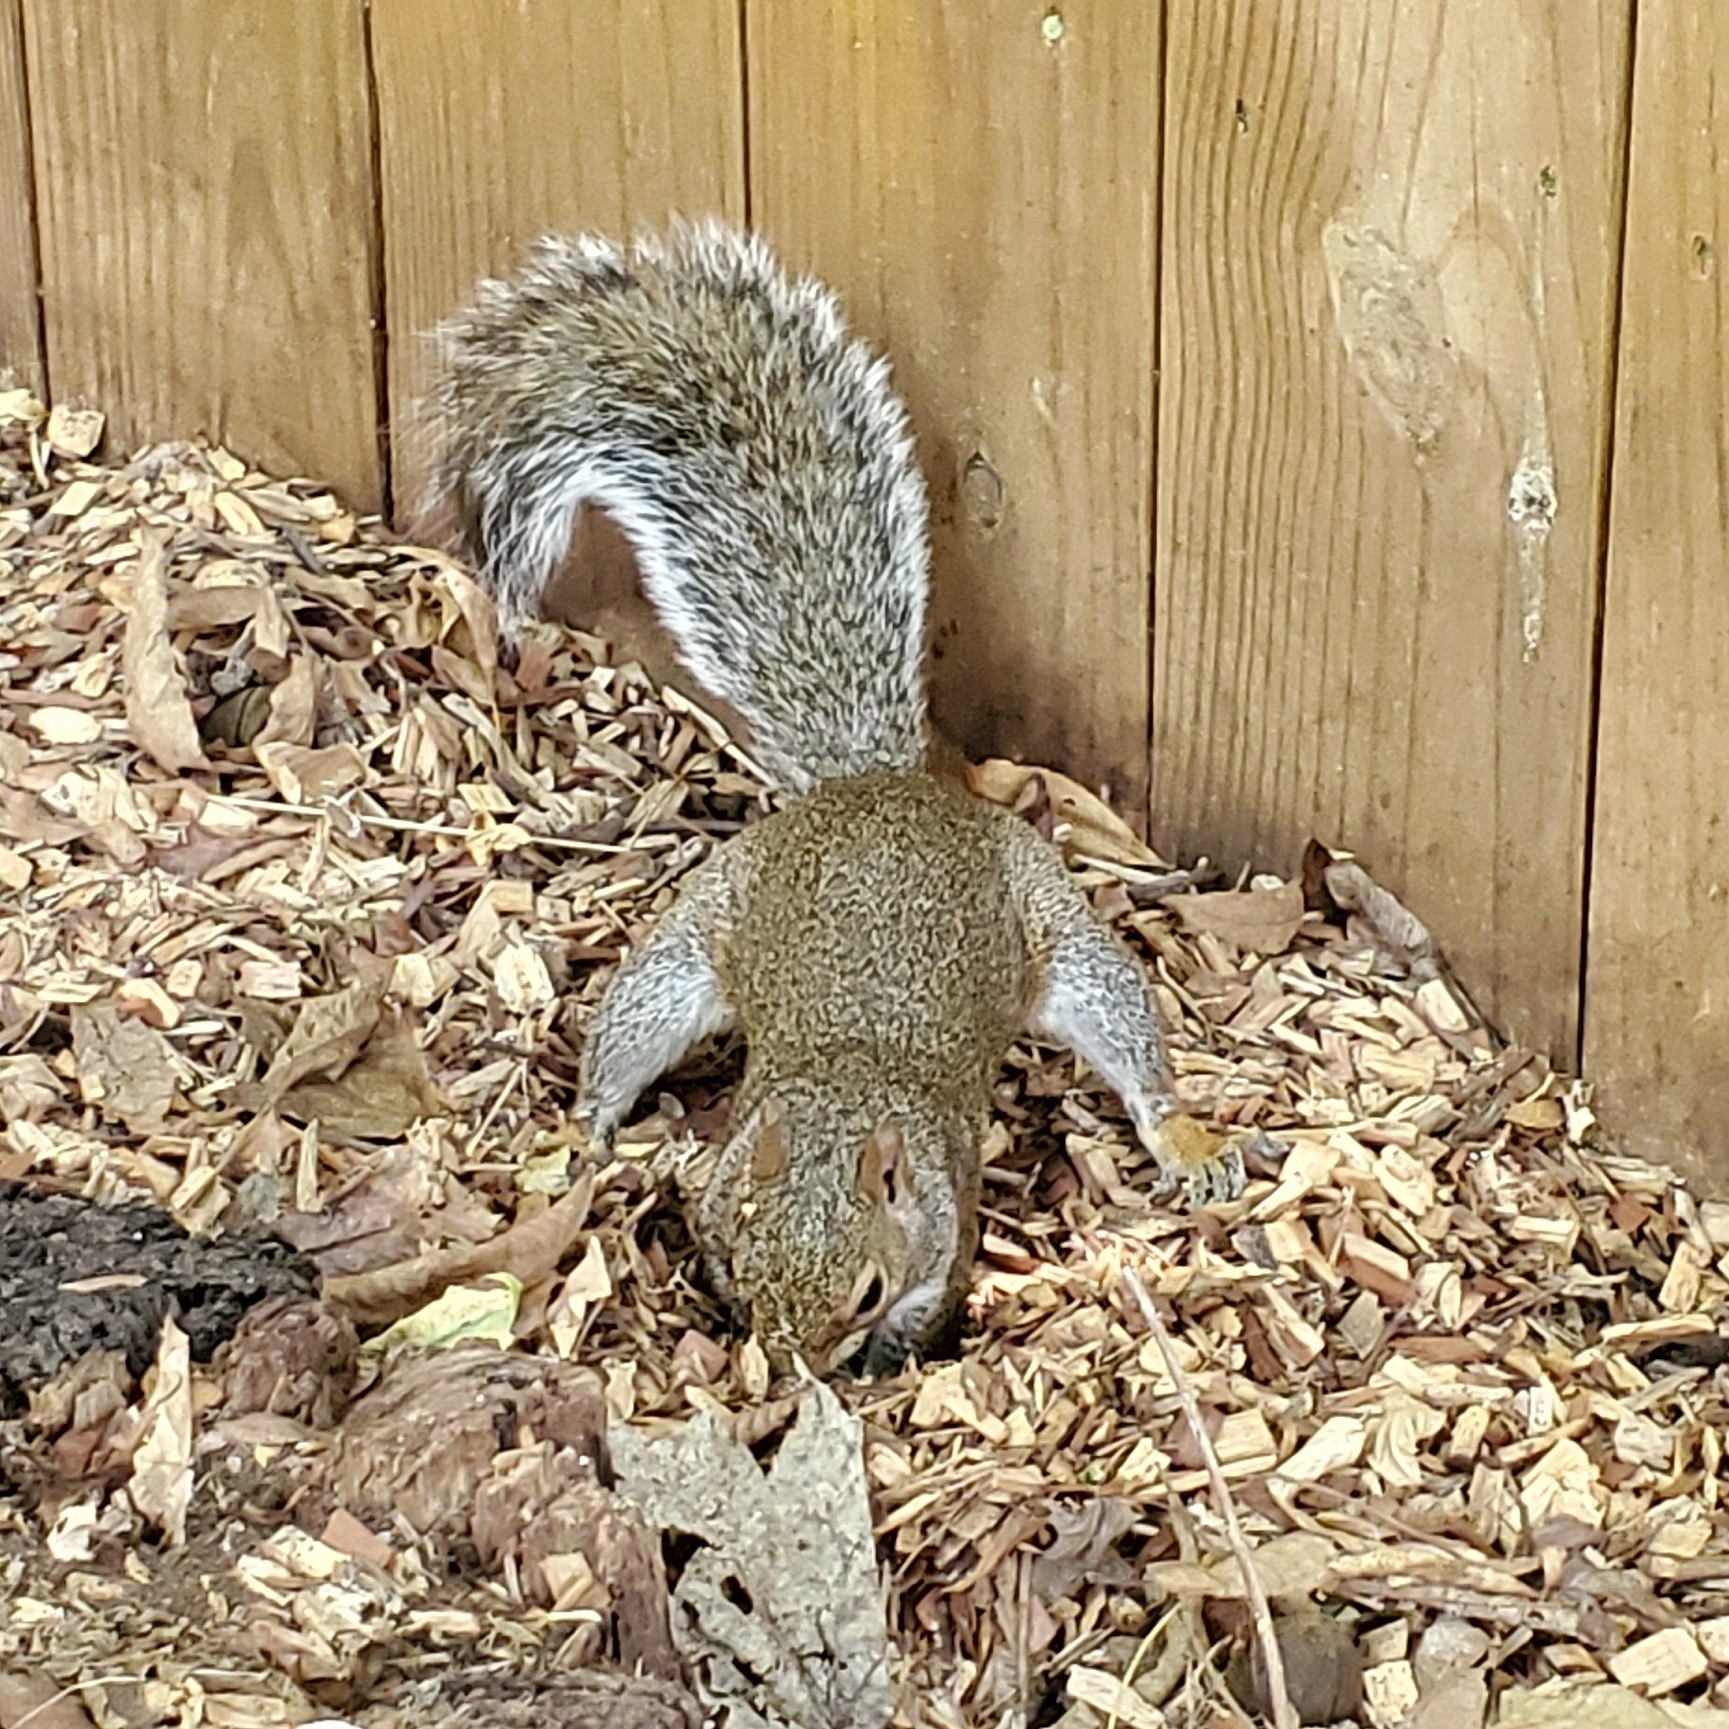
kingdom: Animalia
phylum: Chordata
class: Mammalia
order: Rodentia
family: Sciuridae
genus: Sciurus
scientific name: Sciurus carolinensis
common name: Eastern gray squirrel
